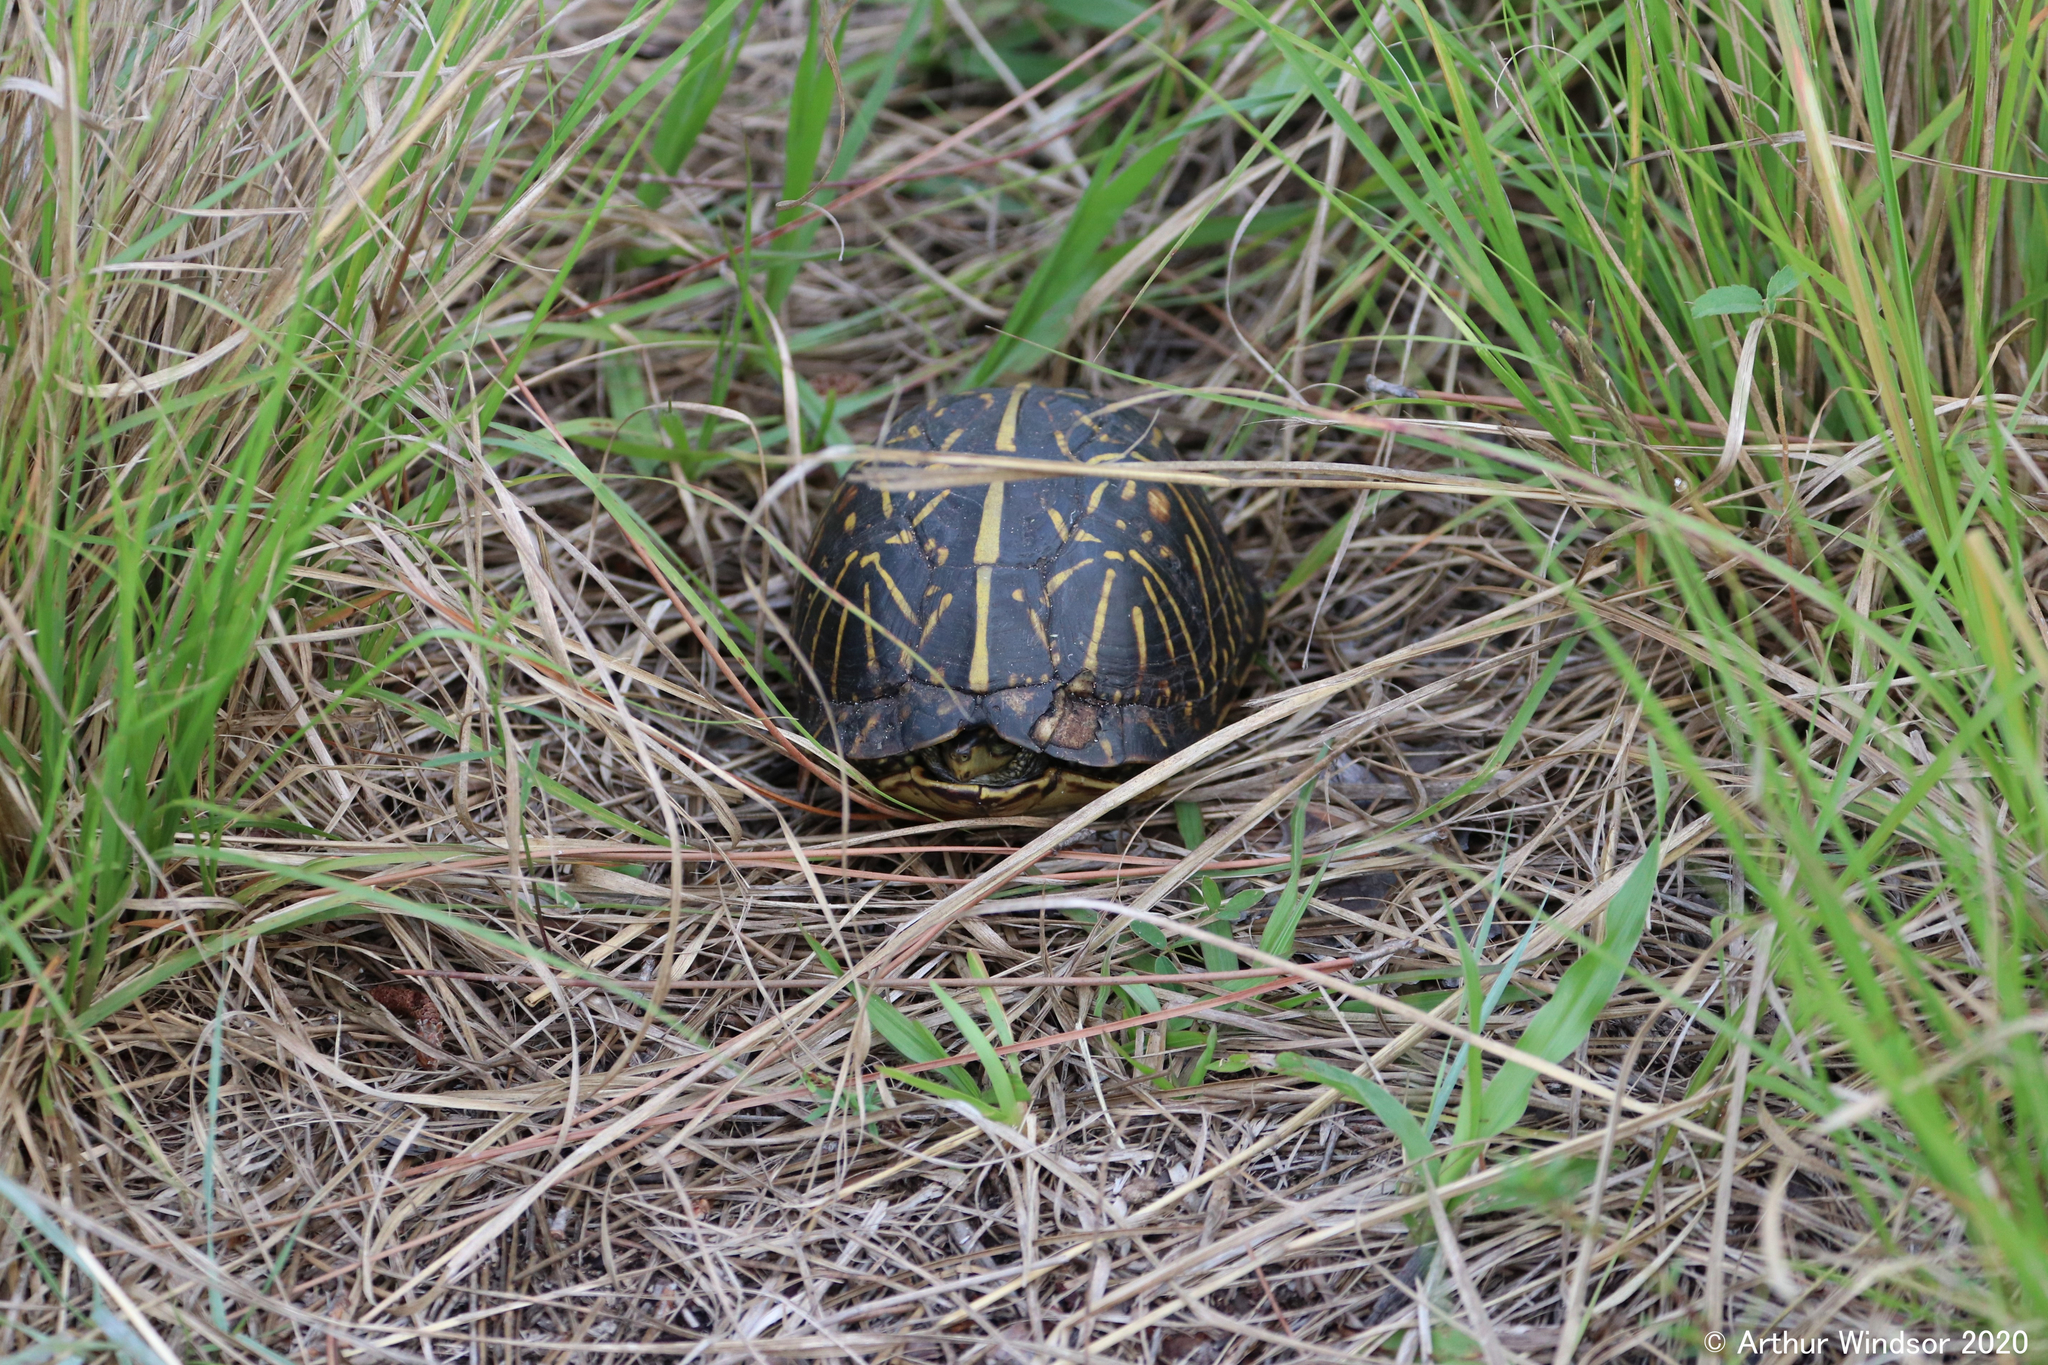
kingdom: Animalia
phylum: Chordata
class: Testudines
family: Emydidae
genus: Terrapene
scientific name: Terrapene carolina
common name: Common box turtle
